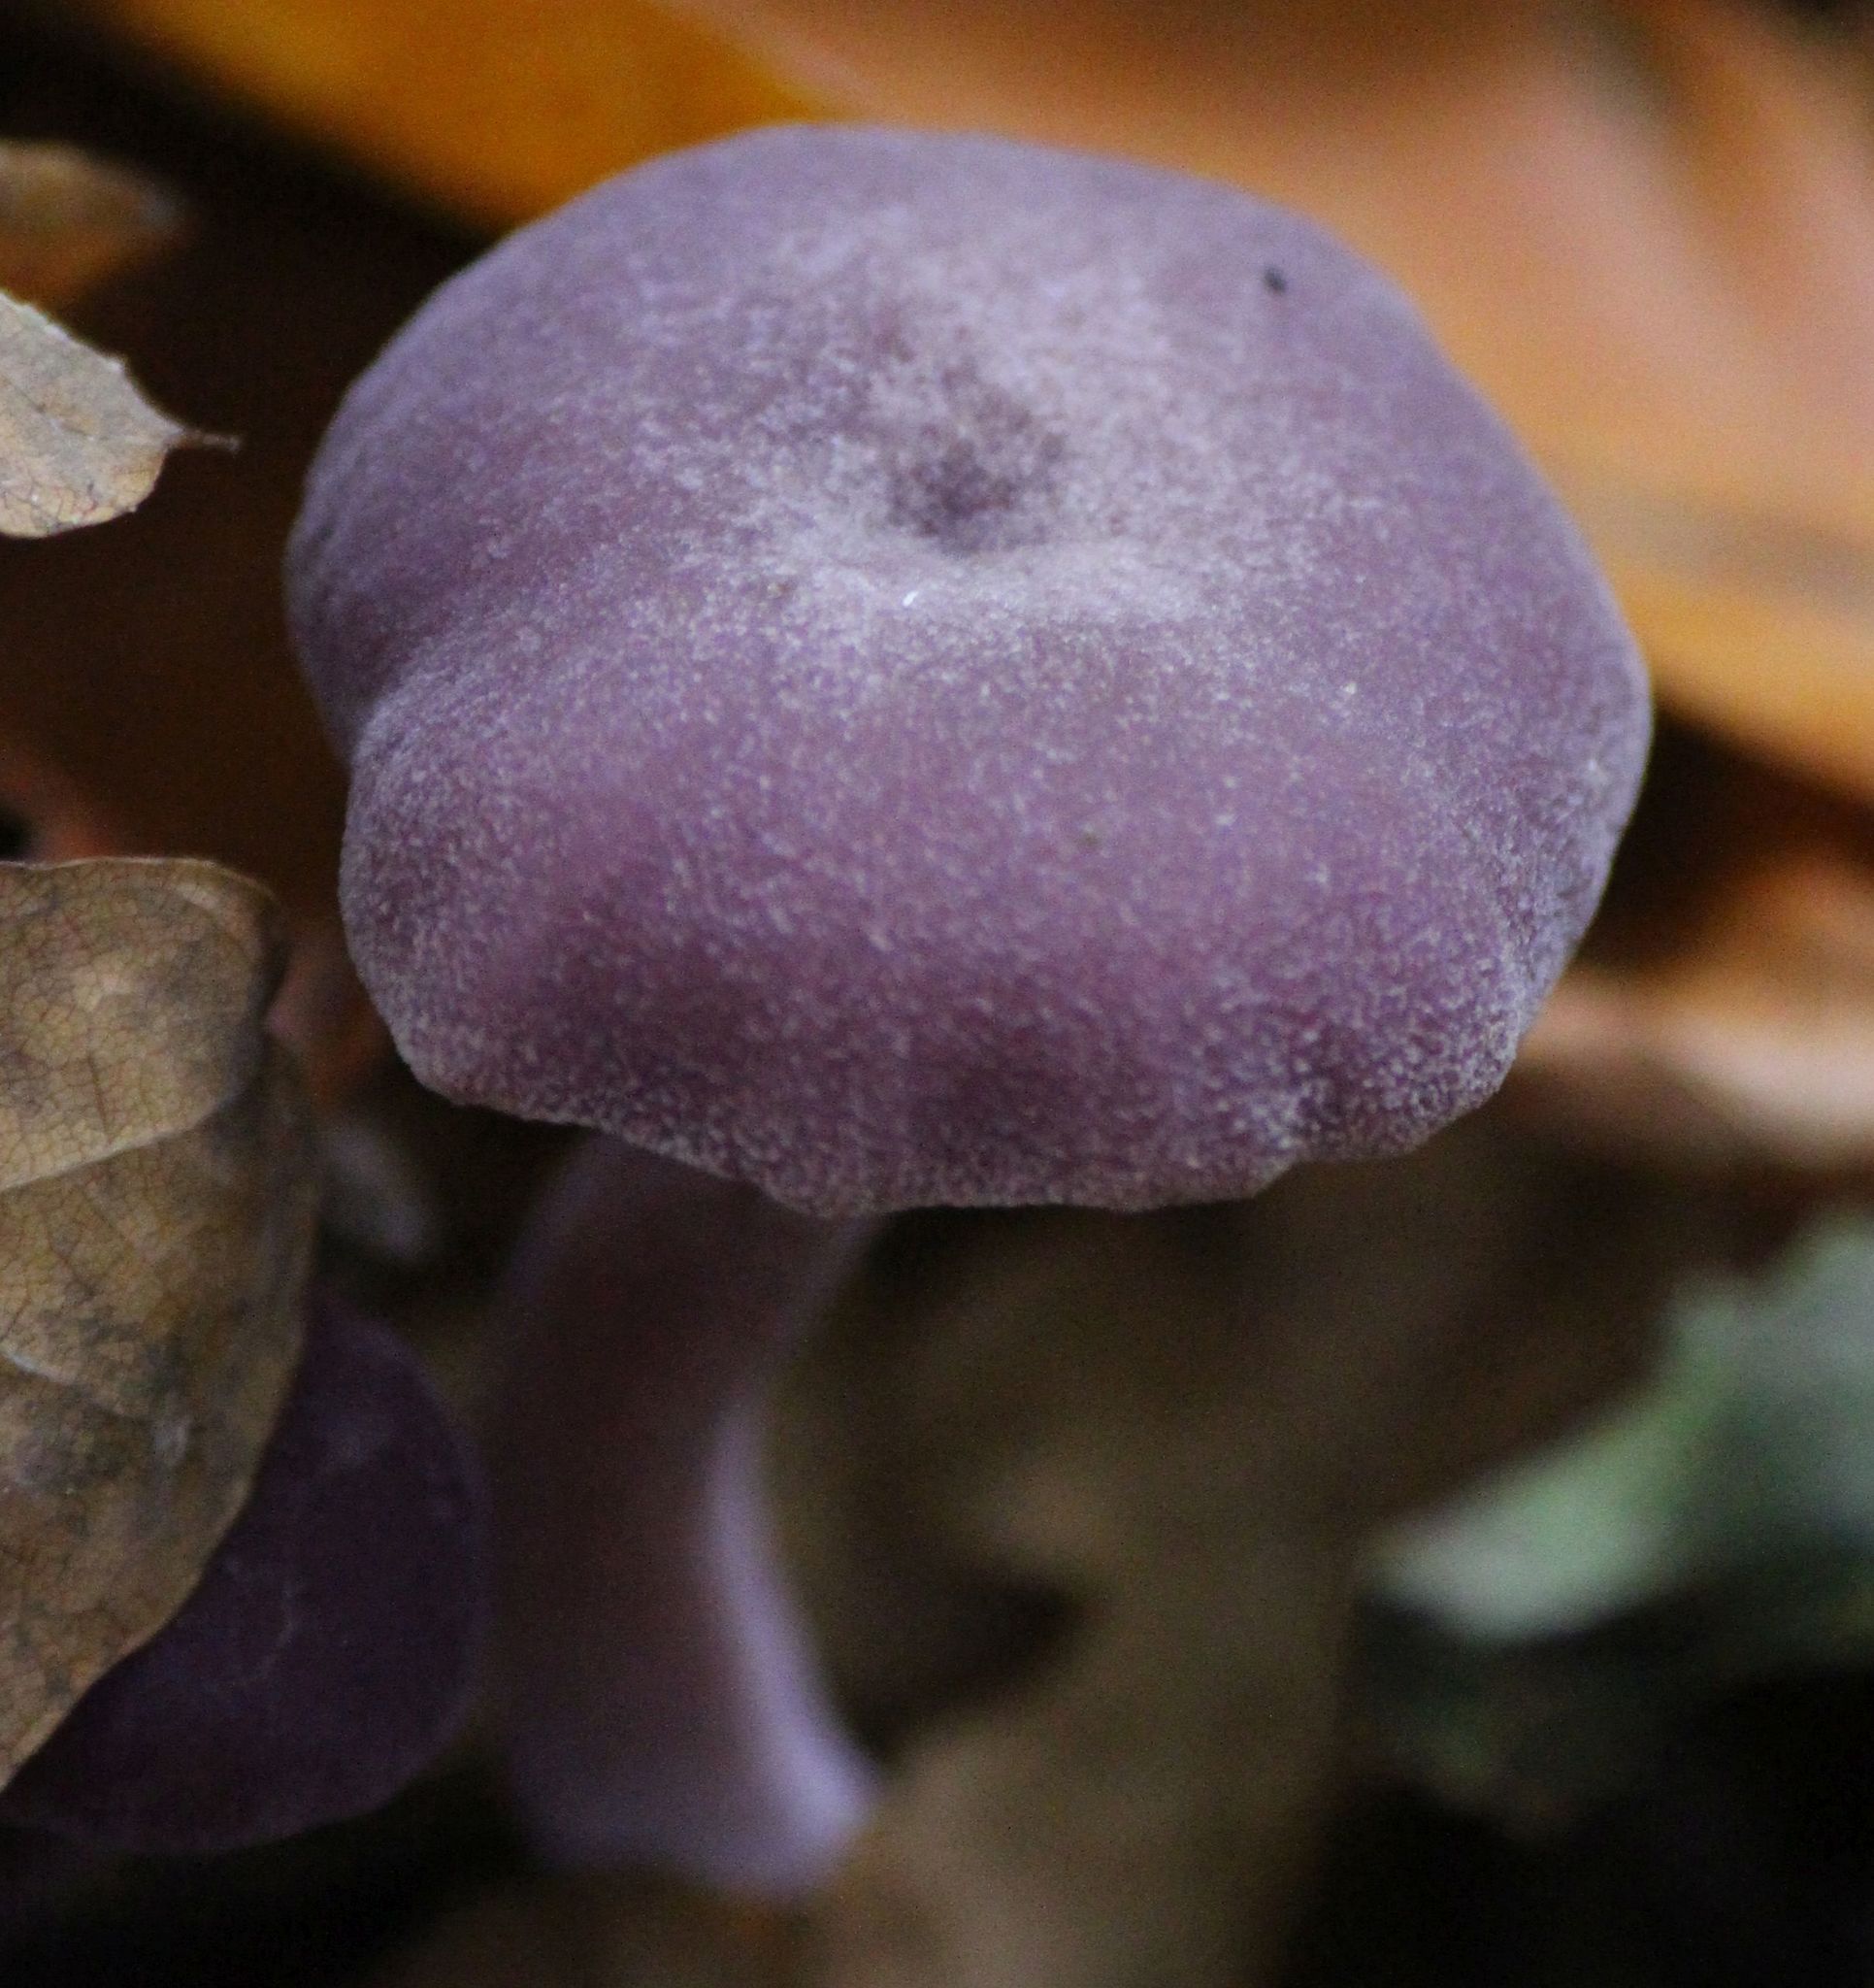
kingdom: Fungi
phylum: Basidiomycota
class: Agaricomycetes
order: Agaricales
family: Hydnangiaceae
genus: Laccaria
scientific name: Laccaria amethystina
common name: Amethyst deceiver
